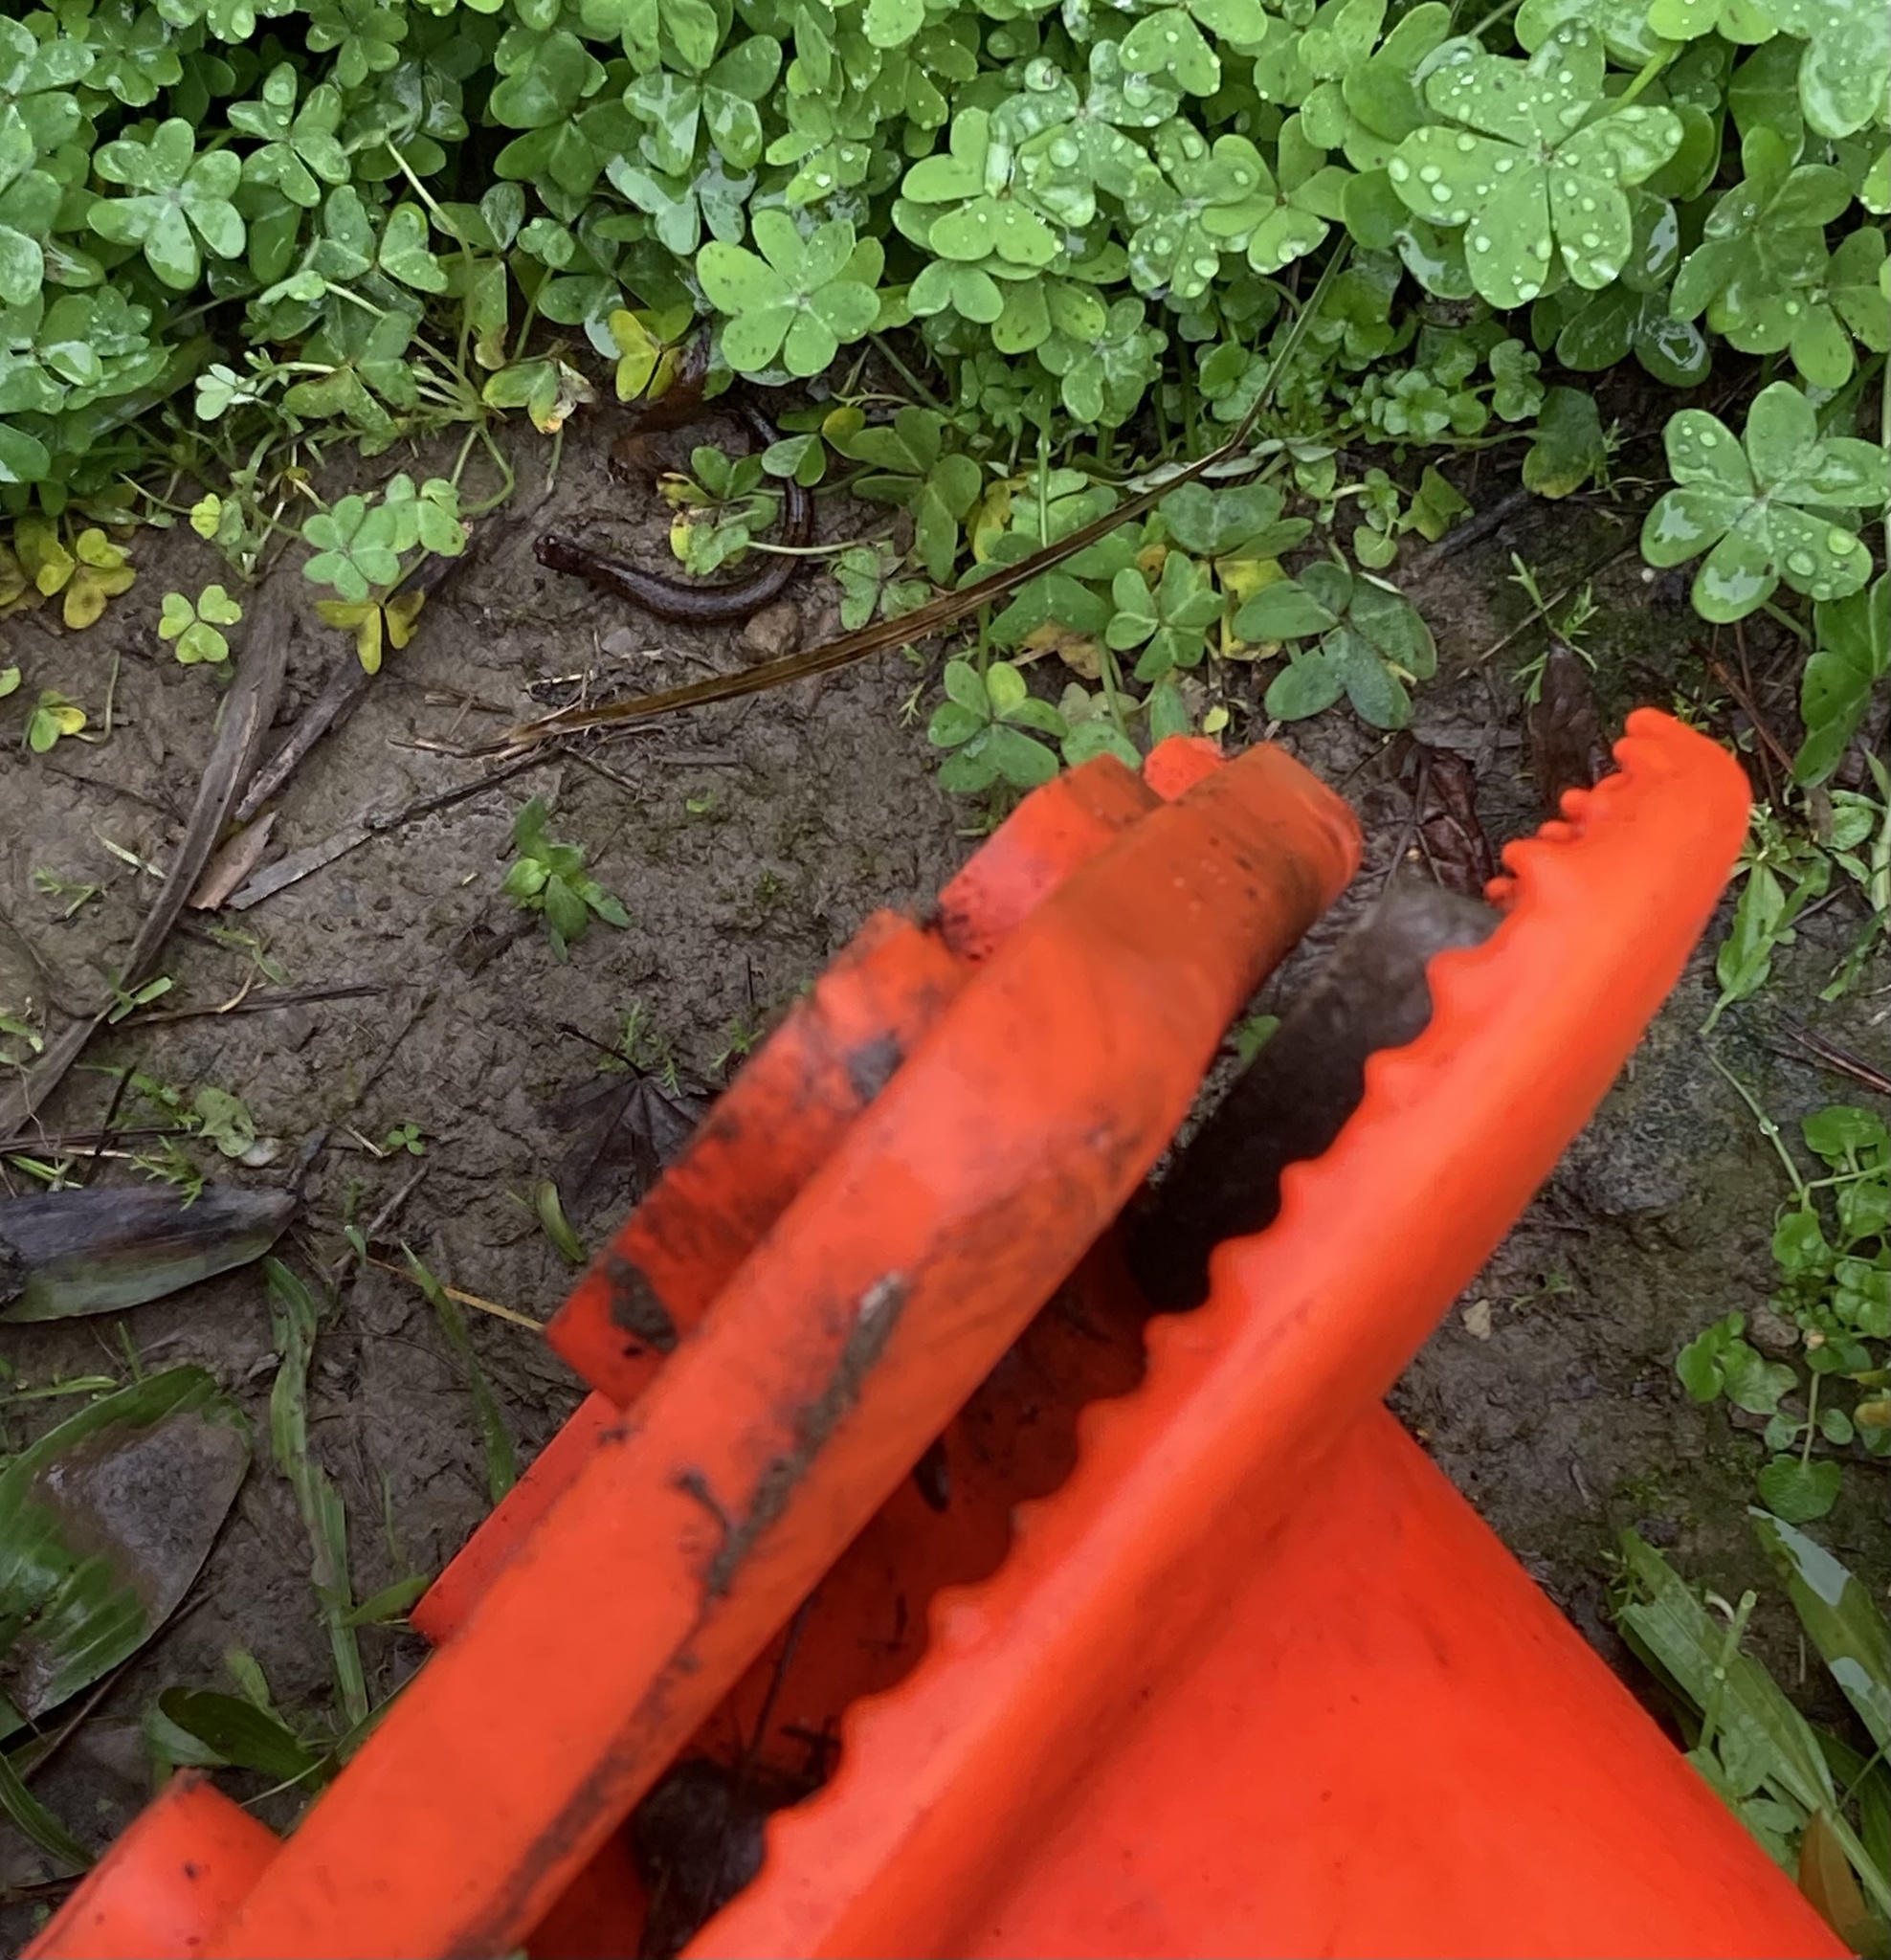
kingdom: Animalia
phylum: Chordata
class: Amphibia
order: Caudata
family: Plethodontidae
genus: Batrachoseps
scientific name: Batrachoseps attenuatus
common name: California slender salamander
